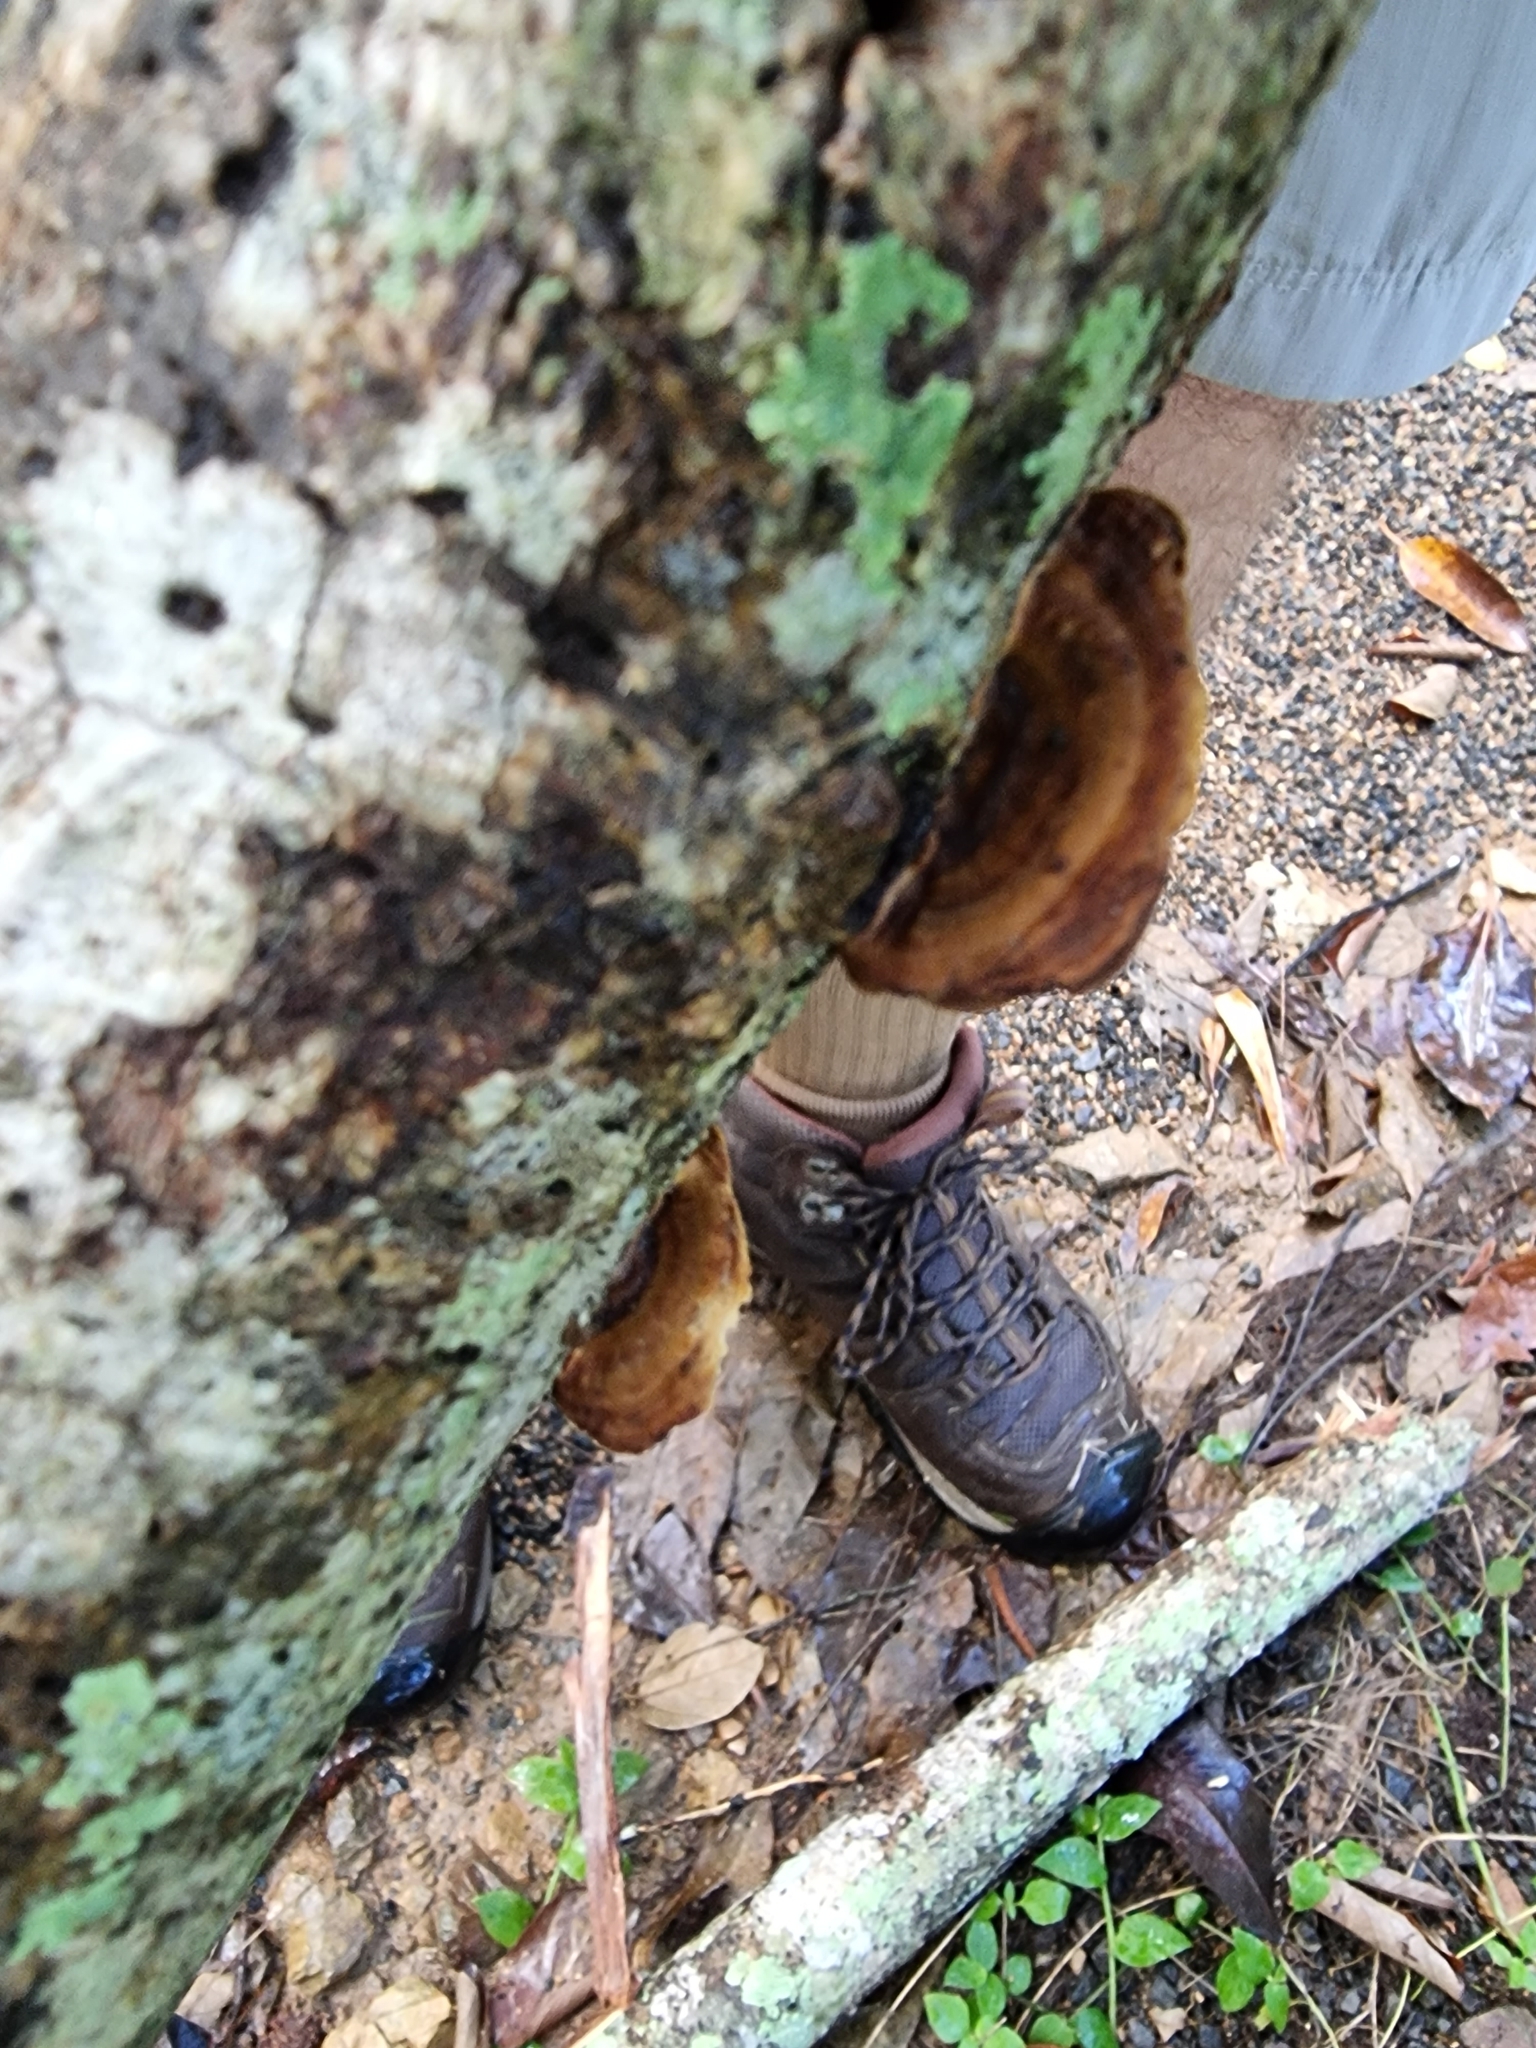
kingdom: Fungi
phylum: Basidiomycota
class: Agaricomycetes
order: Polyporales
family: Polyporaceae
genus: Pseudofavolus
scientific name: Pseudofavolus tenuis
